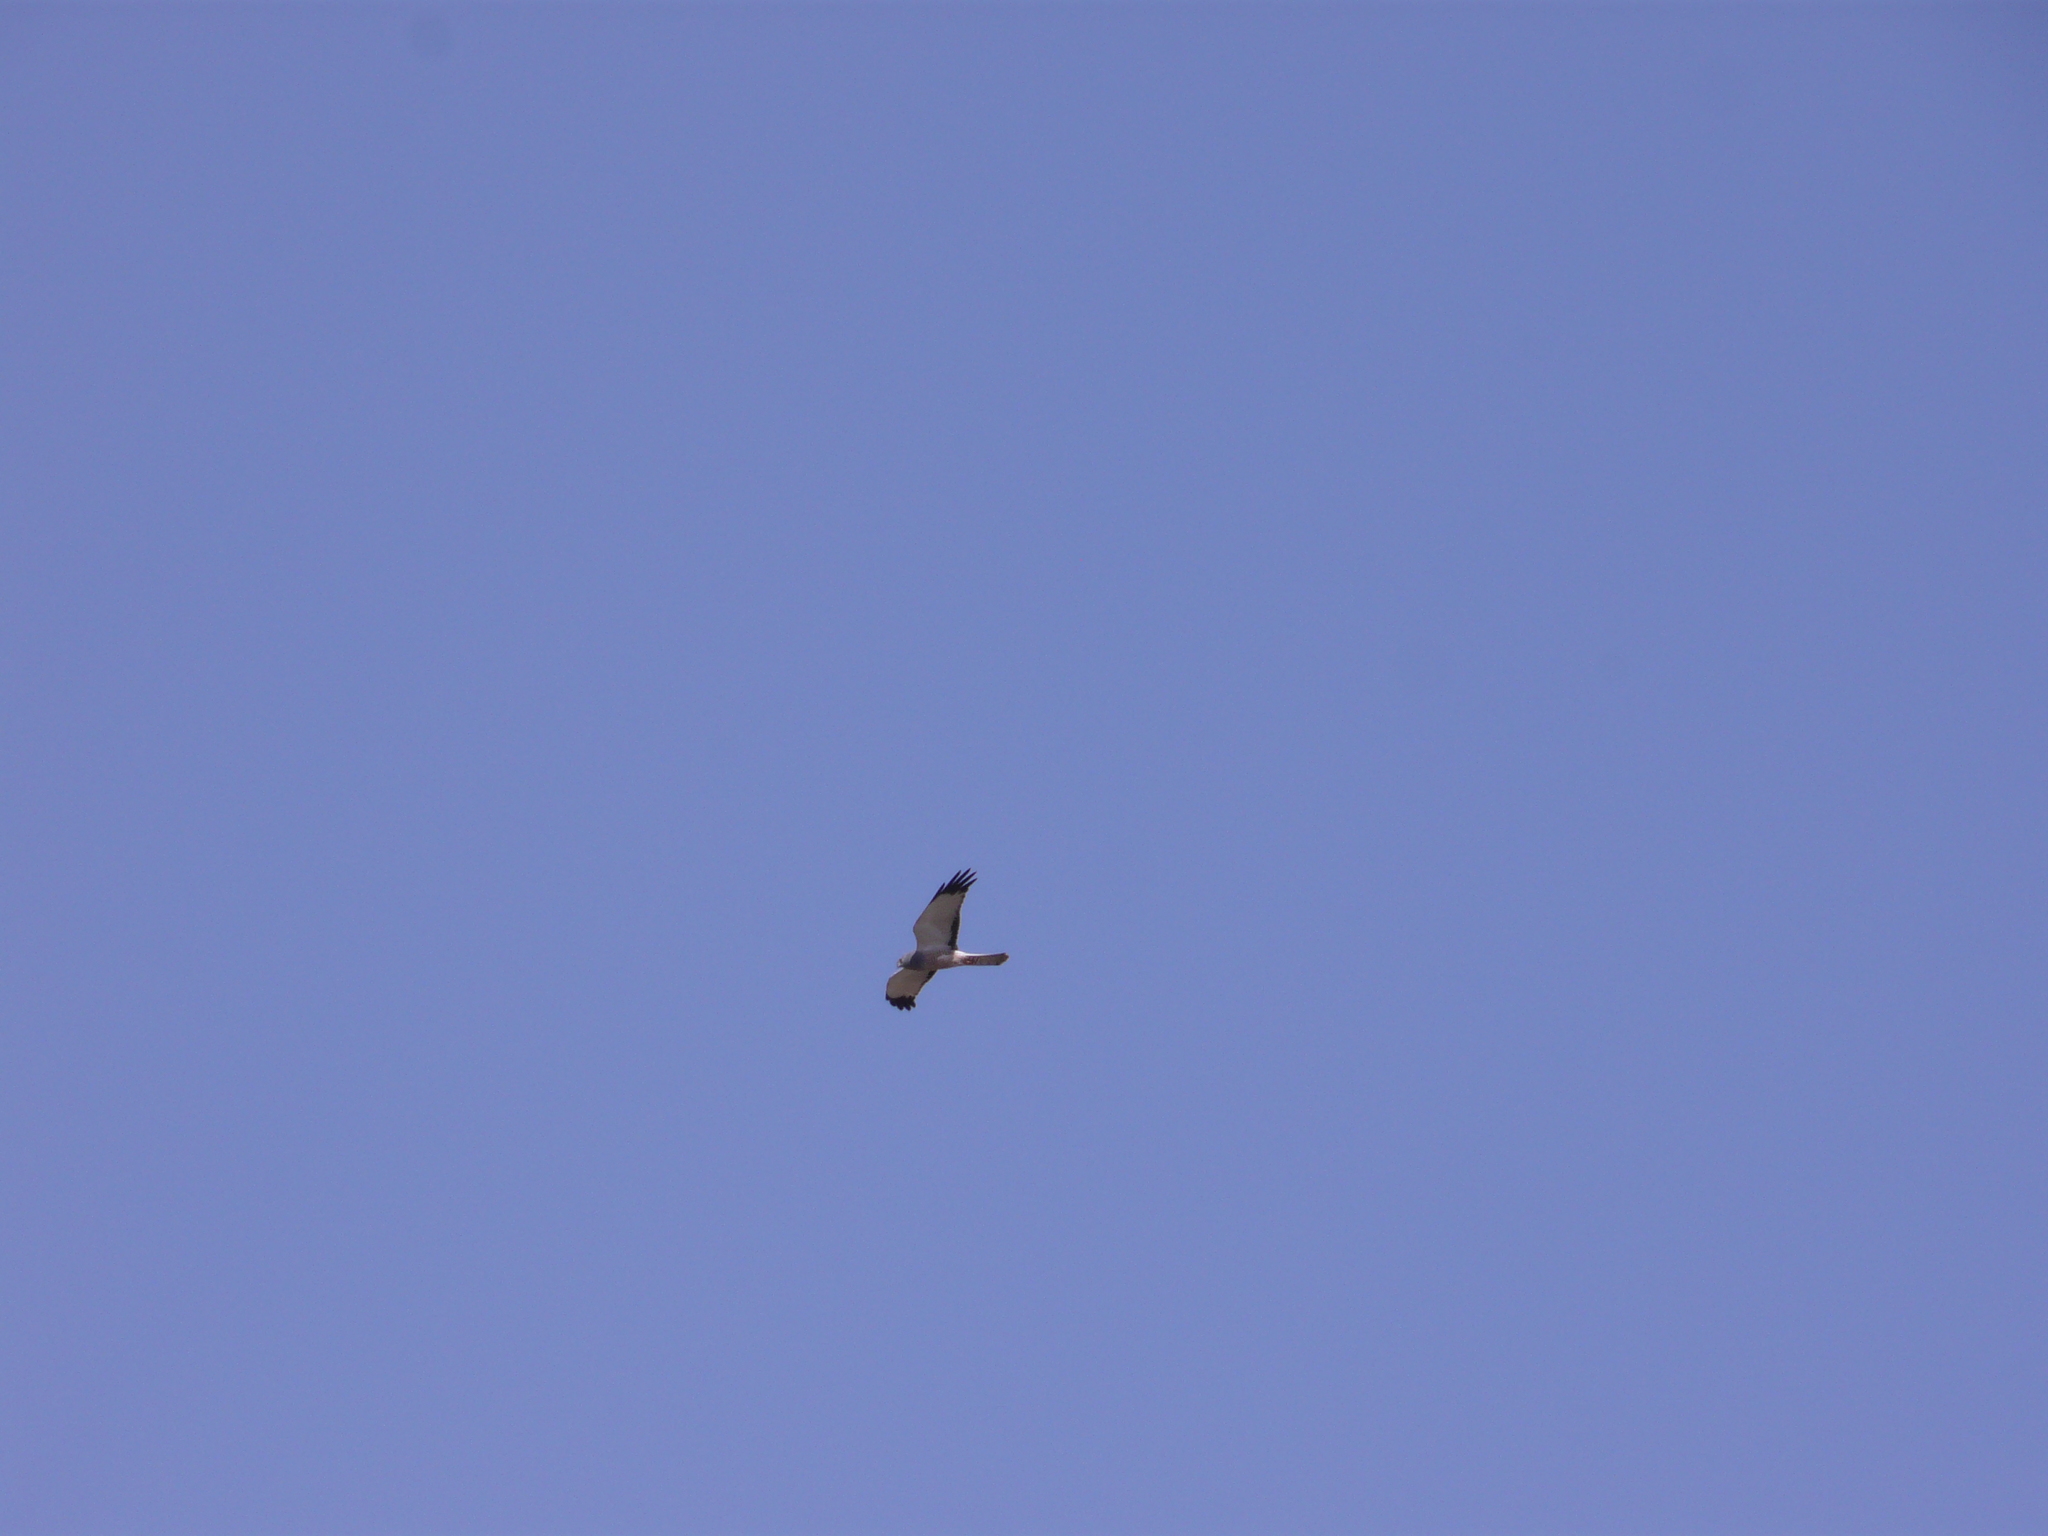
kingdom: Animalia
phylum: Chordata
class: Aves
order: Accipitriformes
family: Accipitridae
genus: Circus
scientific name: Circus cinereus
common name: Cinereous harrier
